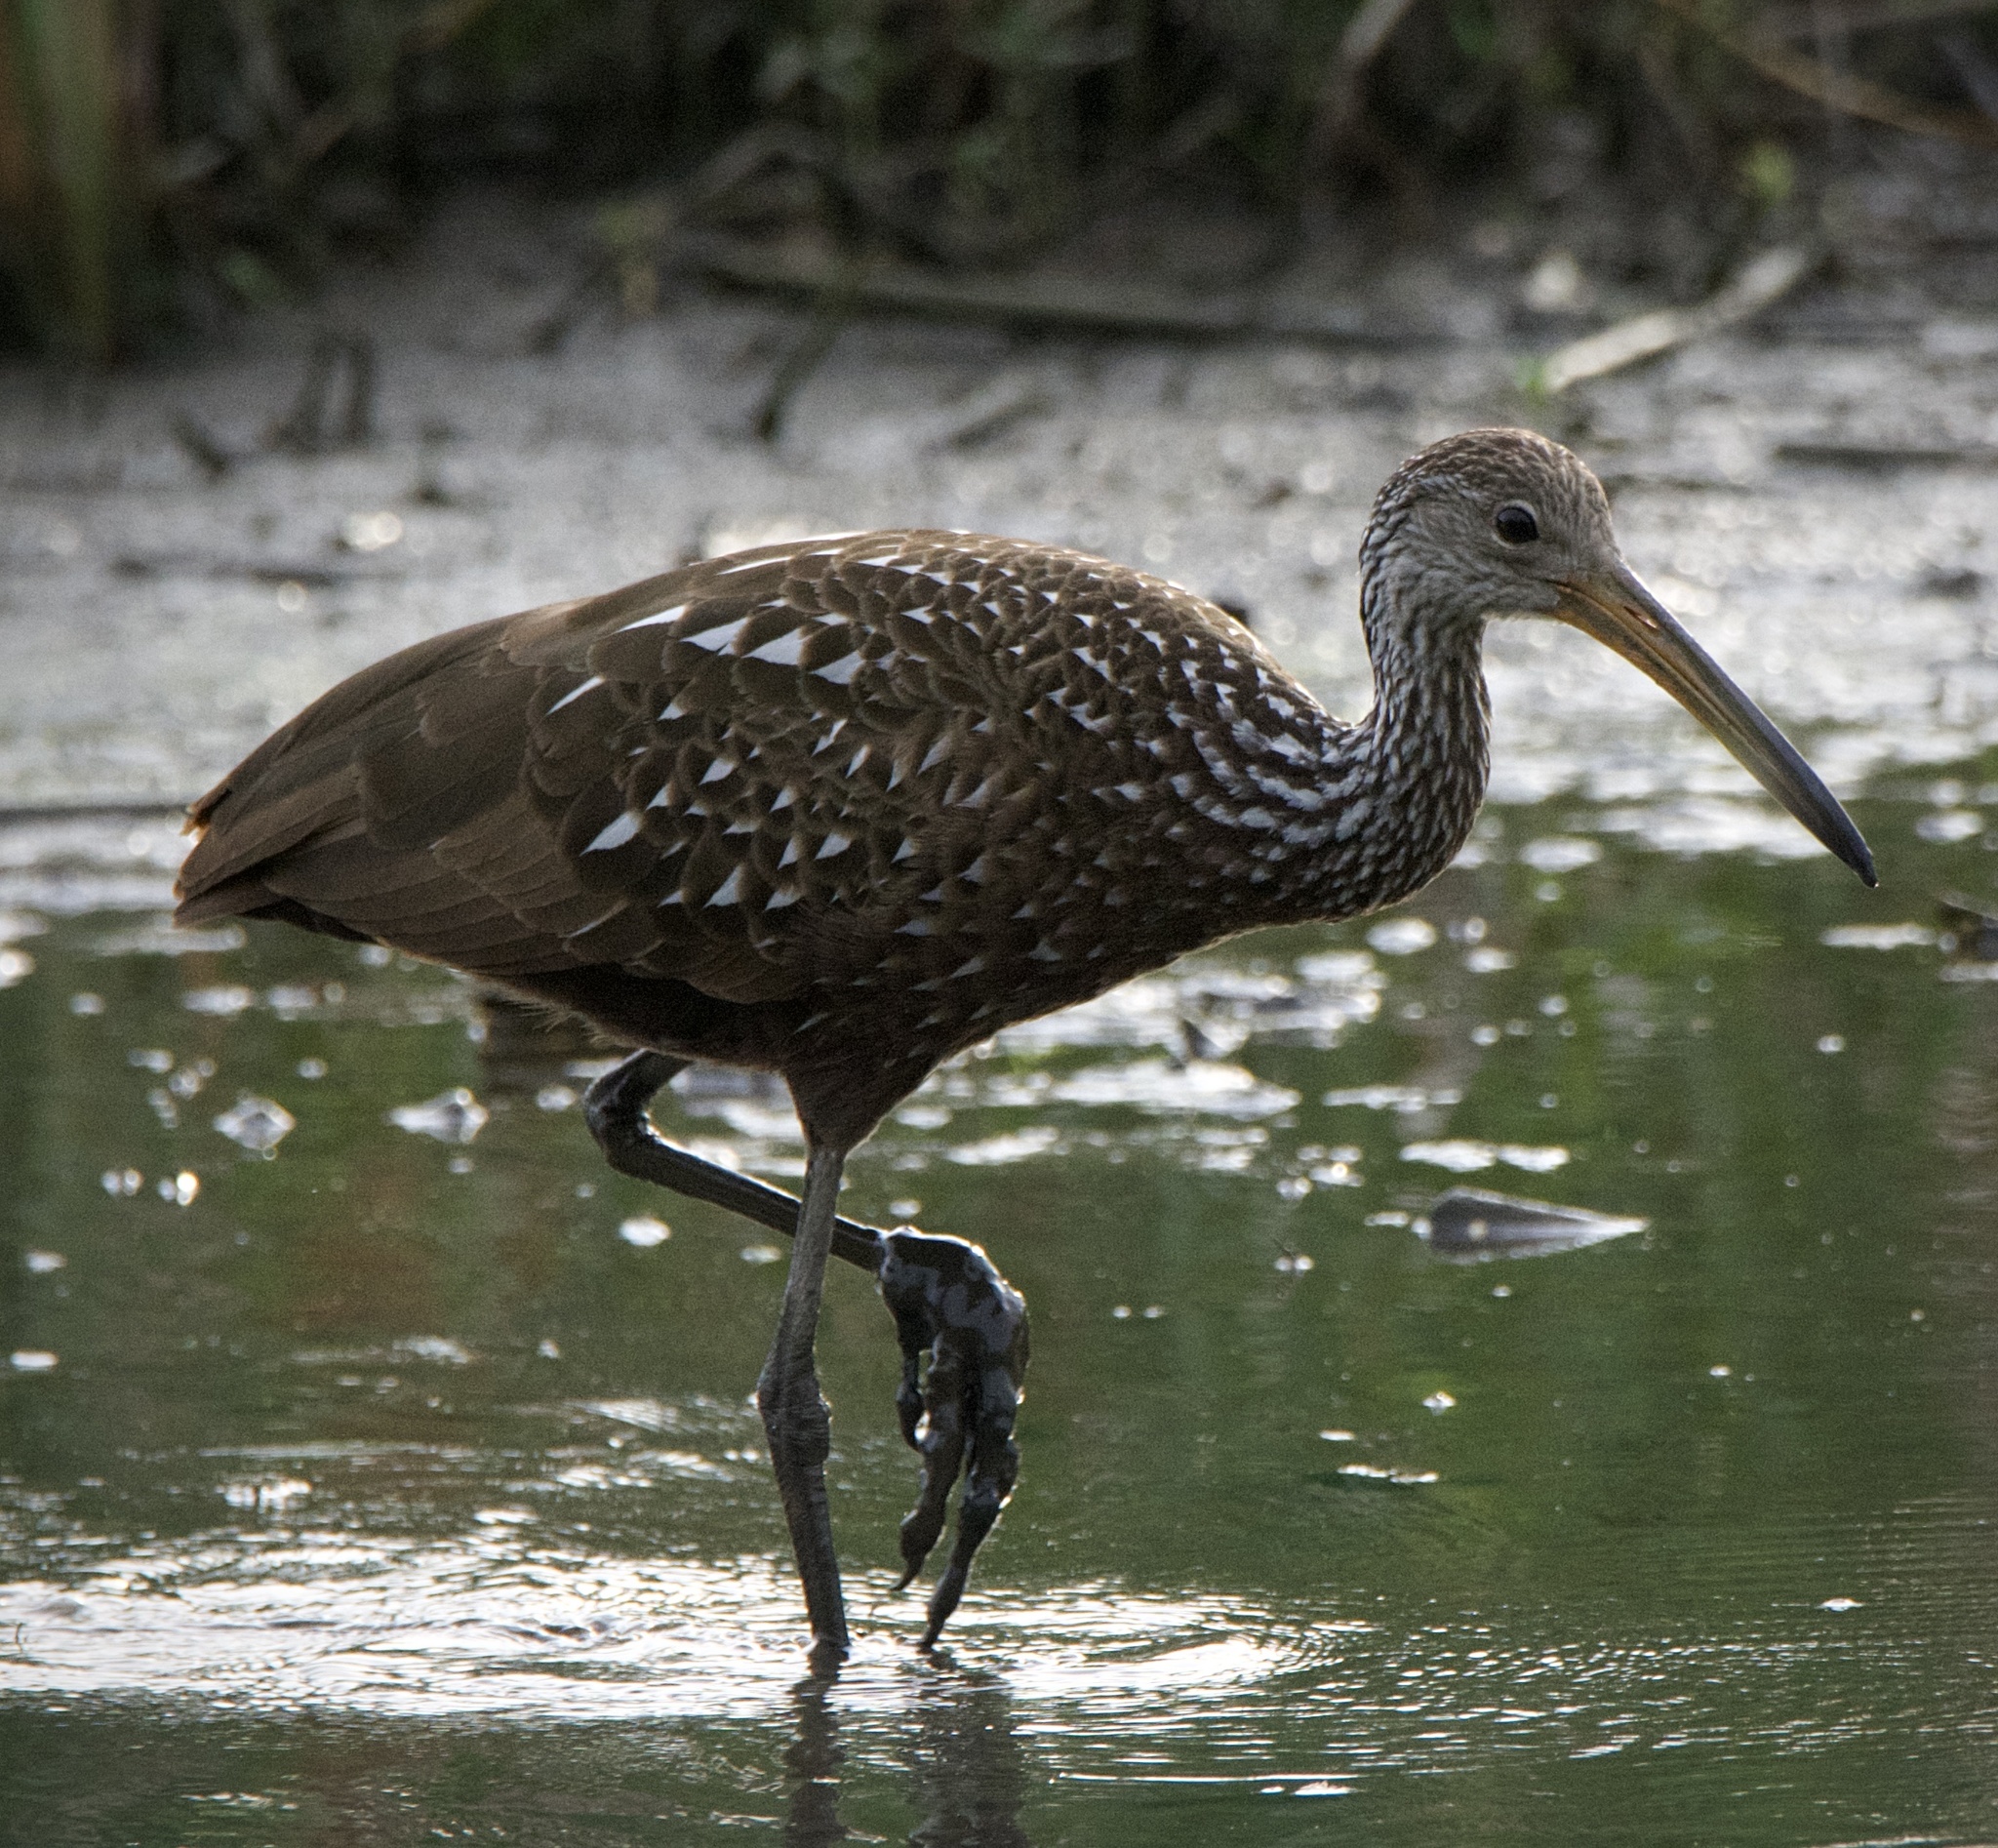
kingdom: Animalia
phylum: Chordata
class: Aves
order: Gruiformes
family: Aramidae
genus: Aramus
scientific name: Aramus guarauna
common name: Limpkin
